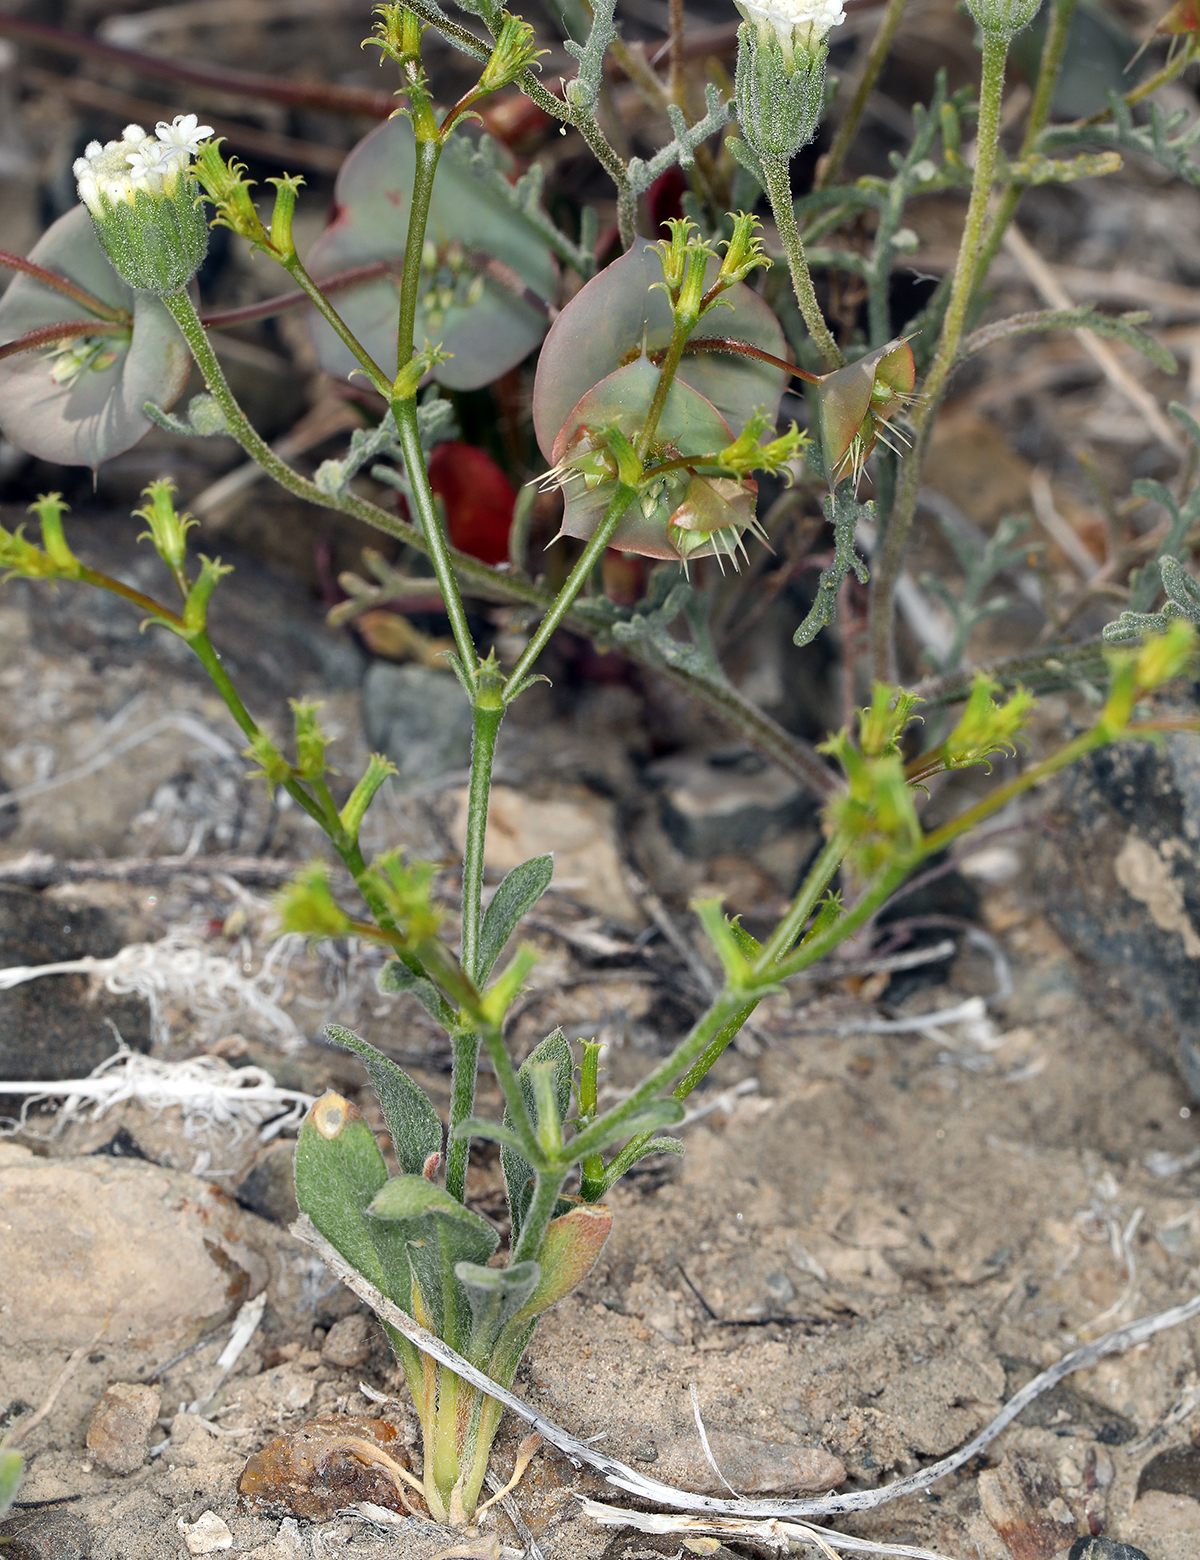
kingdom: Plantae
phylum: Tracheophyta
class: Magnoliopsida
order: Caryophyllales
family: Polygonaceae
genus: Chorizanthe
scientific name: Chorizanthe brevicornu
